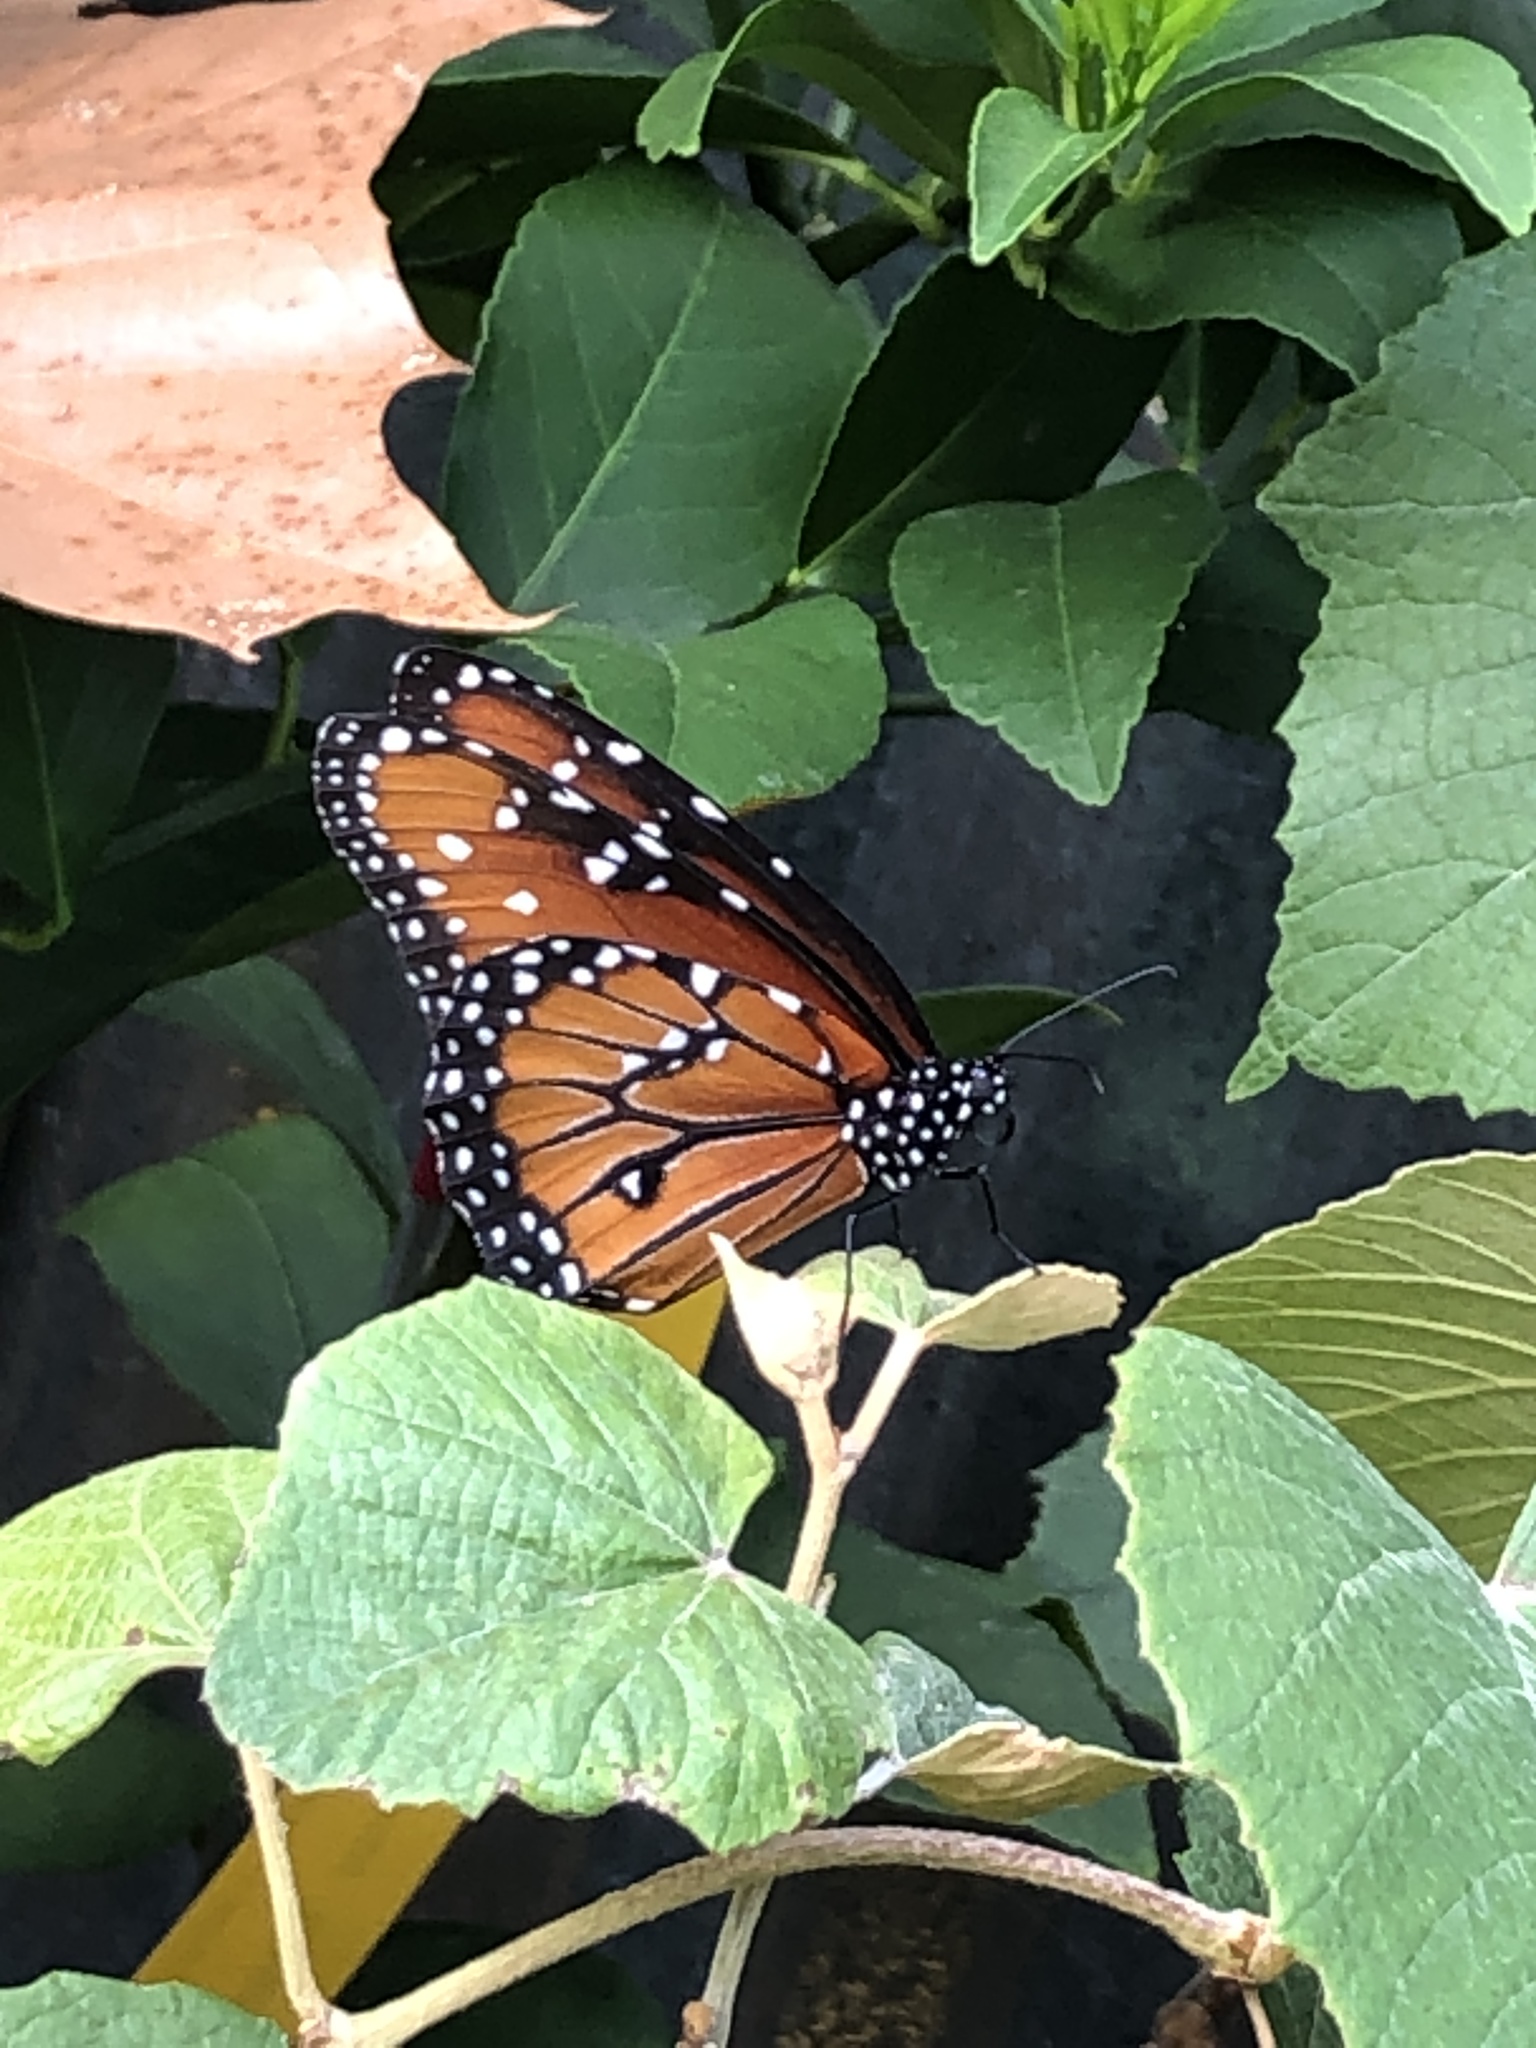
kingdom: Animalia
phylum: Arthropoda
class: Insecta
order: Lepidoptera
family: Nymphalidae
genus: Danaus
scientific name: Danaus gilippus
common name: Queen
